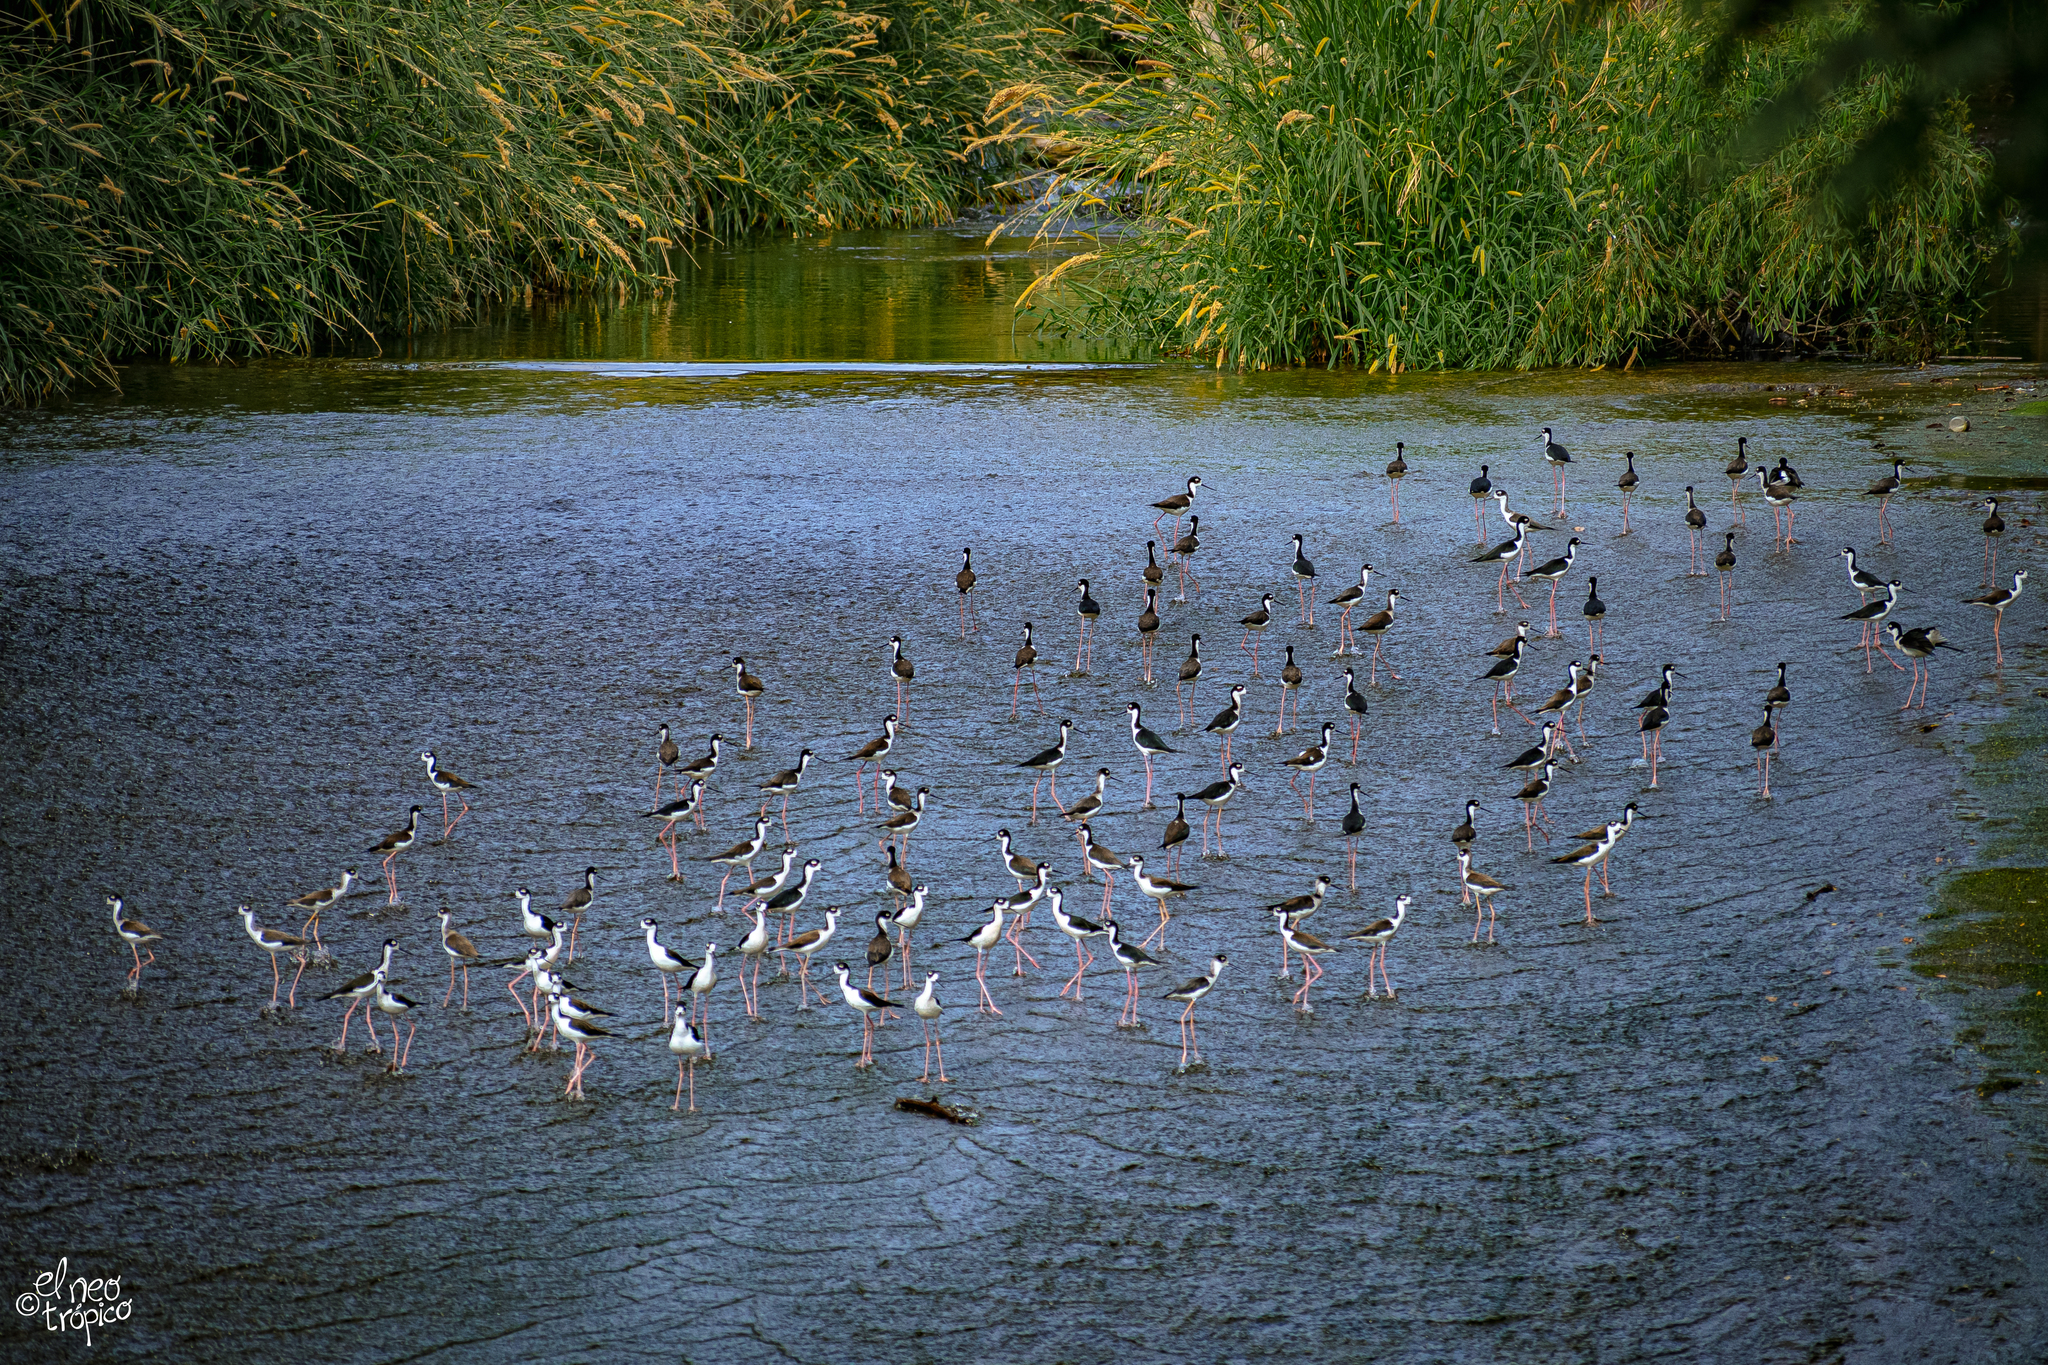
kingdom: Animalia
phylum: Chordata
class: Aves
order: Charadriiformes
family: Recurvirostridae
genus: Himantopus
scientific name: Himantopus mexicanus
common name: Black-necked stilt
